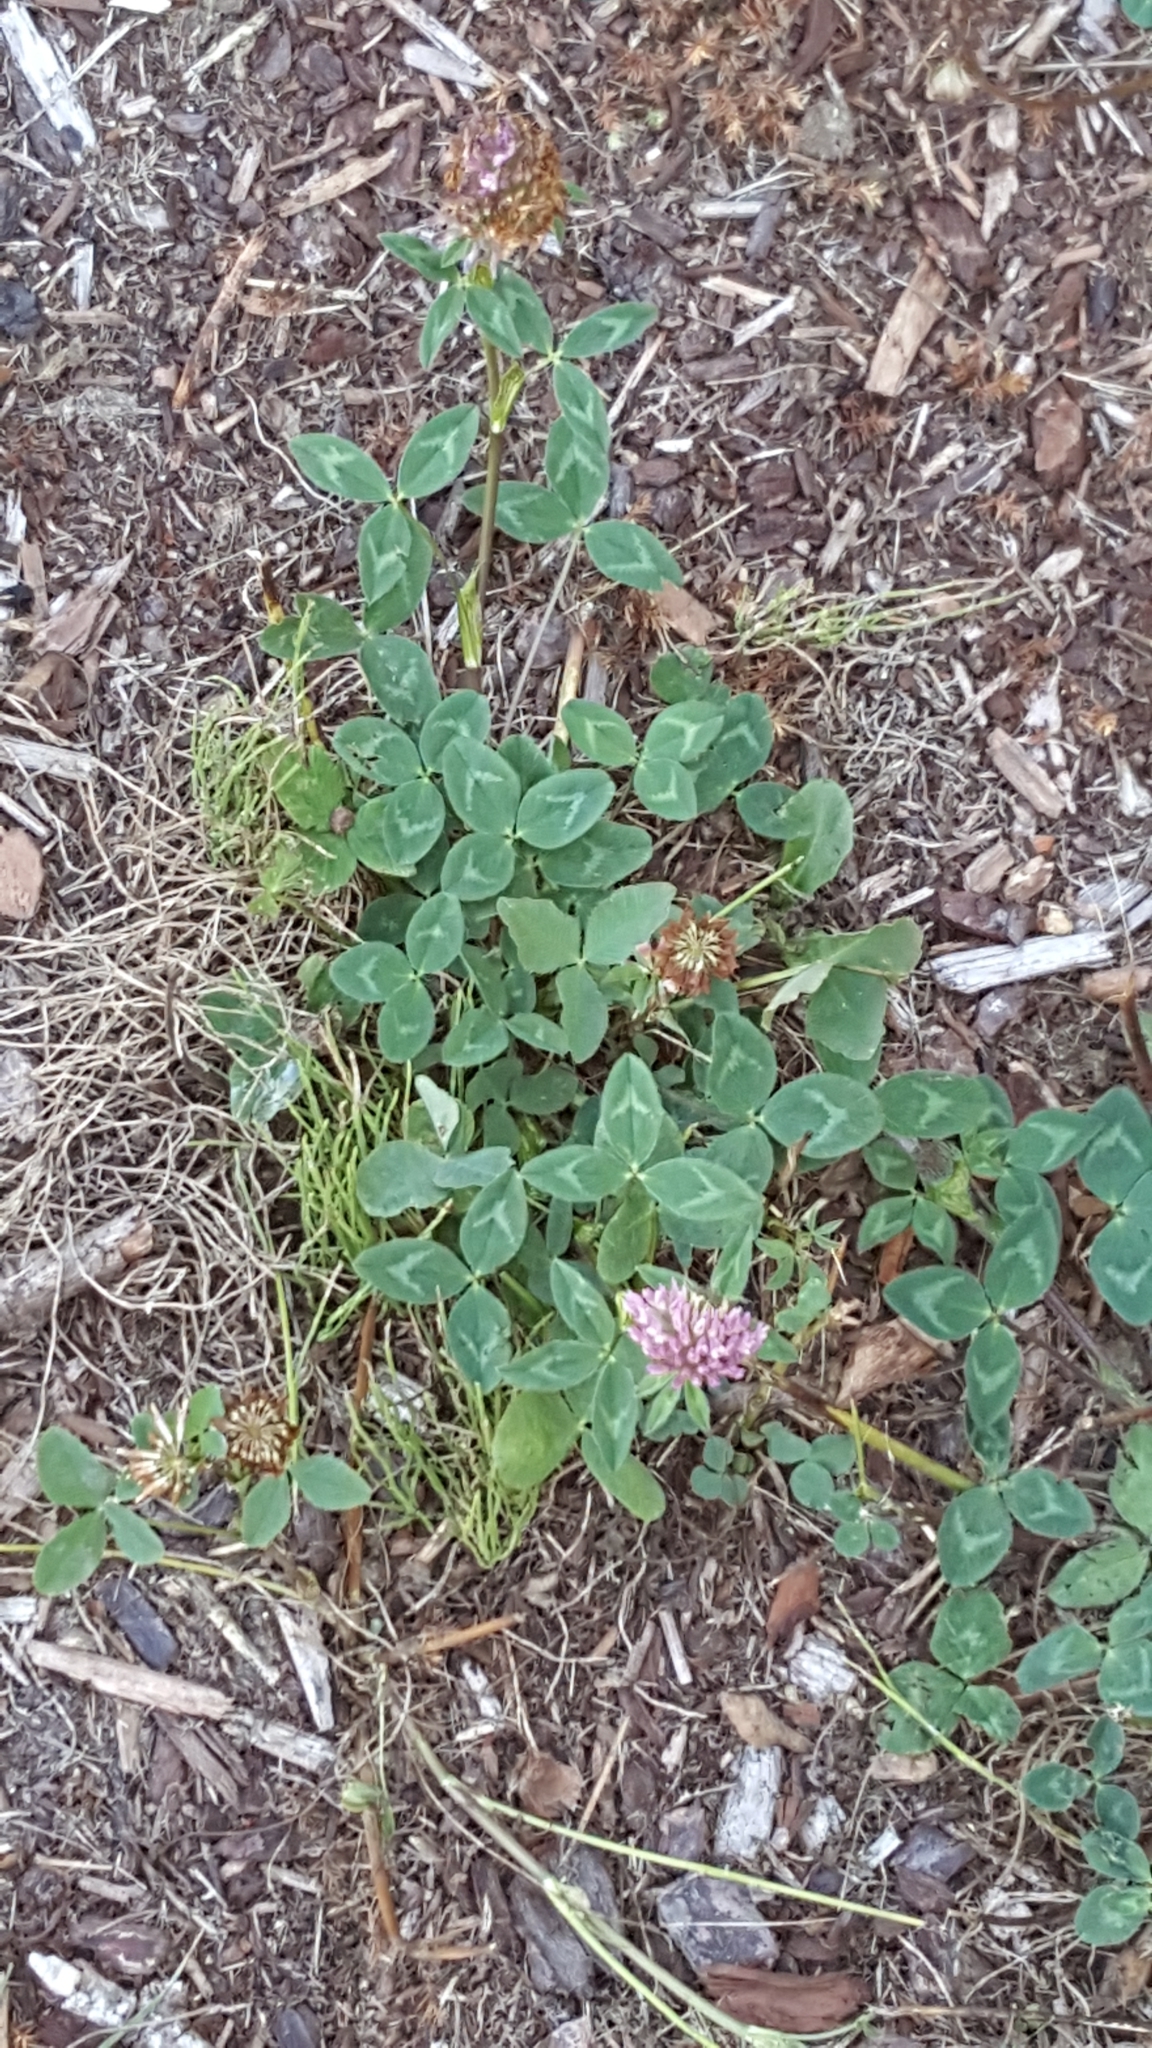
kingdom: Plantae
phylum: Tracheophyta
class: Magnoliopsida
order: Fabales
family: Fabaceae
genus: Trifolium
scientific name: Trifolium pratense
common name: Red clover
